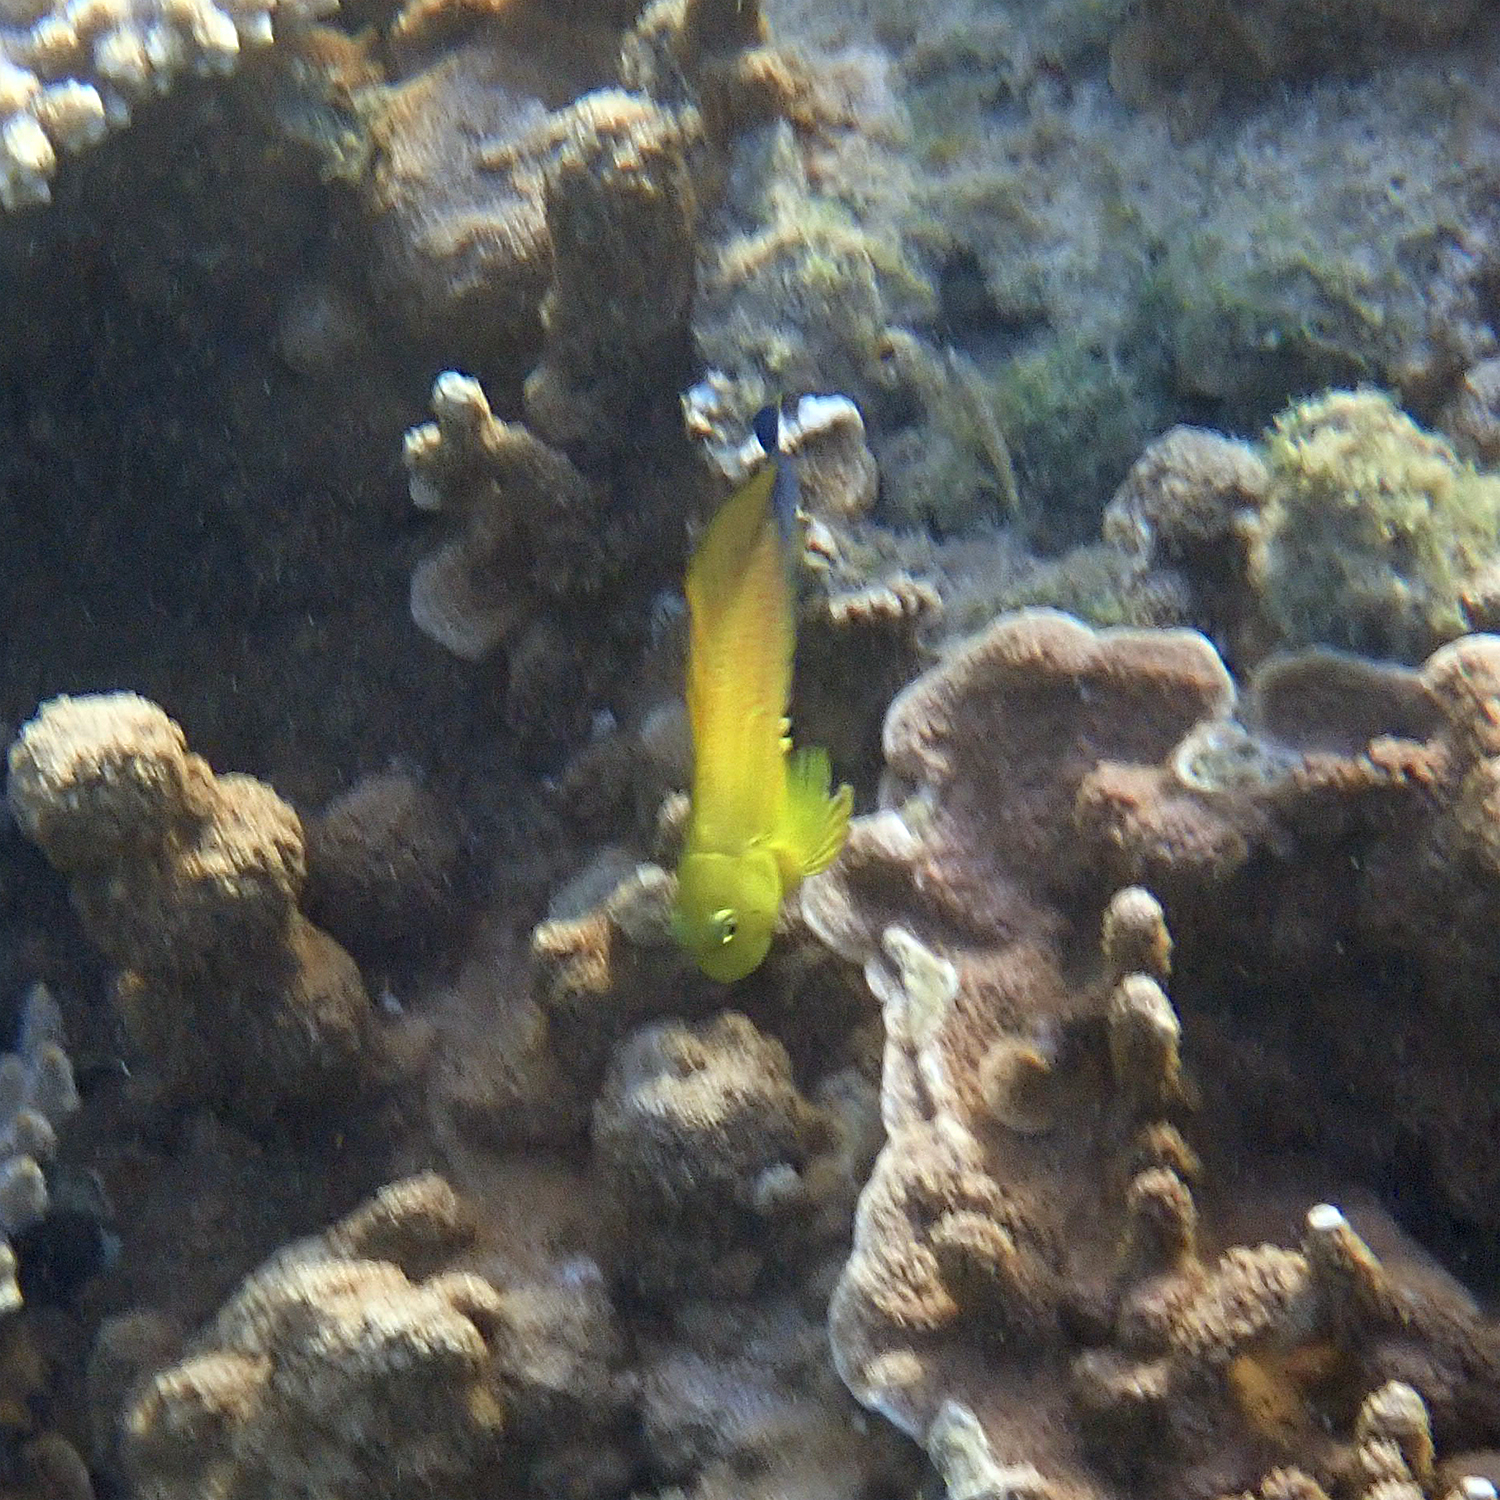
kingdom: Animalia
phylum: Chordata
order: Perciformes
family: Blenniidae
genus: Cirripectes
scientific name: Cirripectes chelomatus
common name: Lady musgrave blenny
